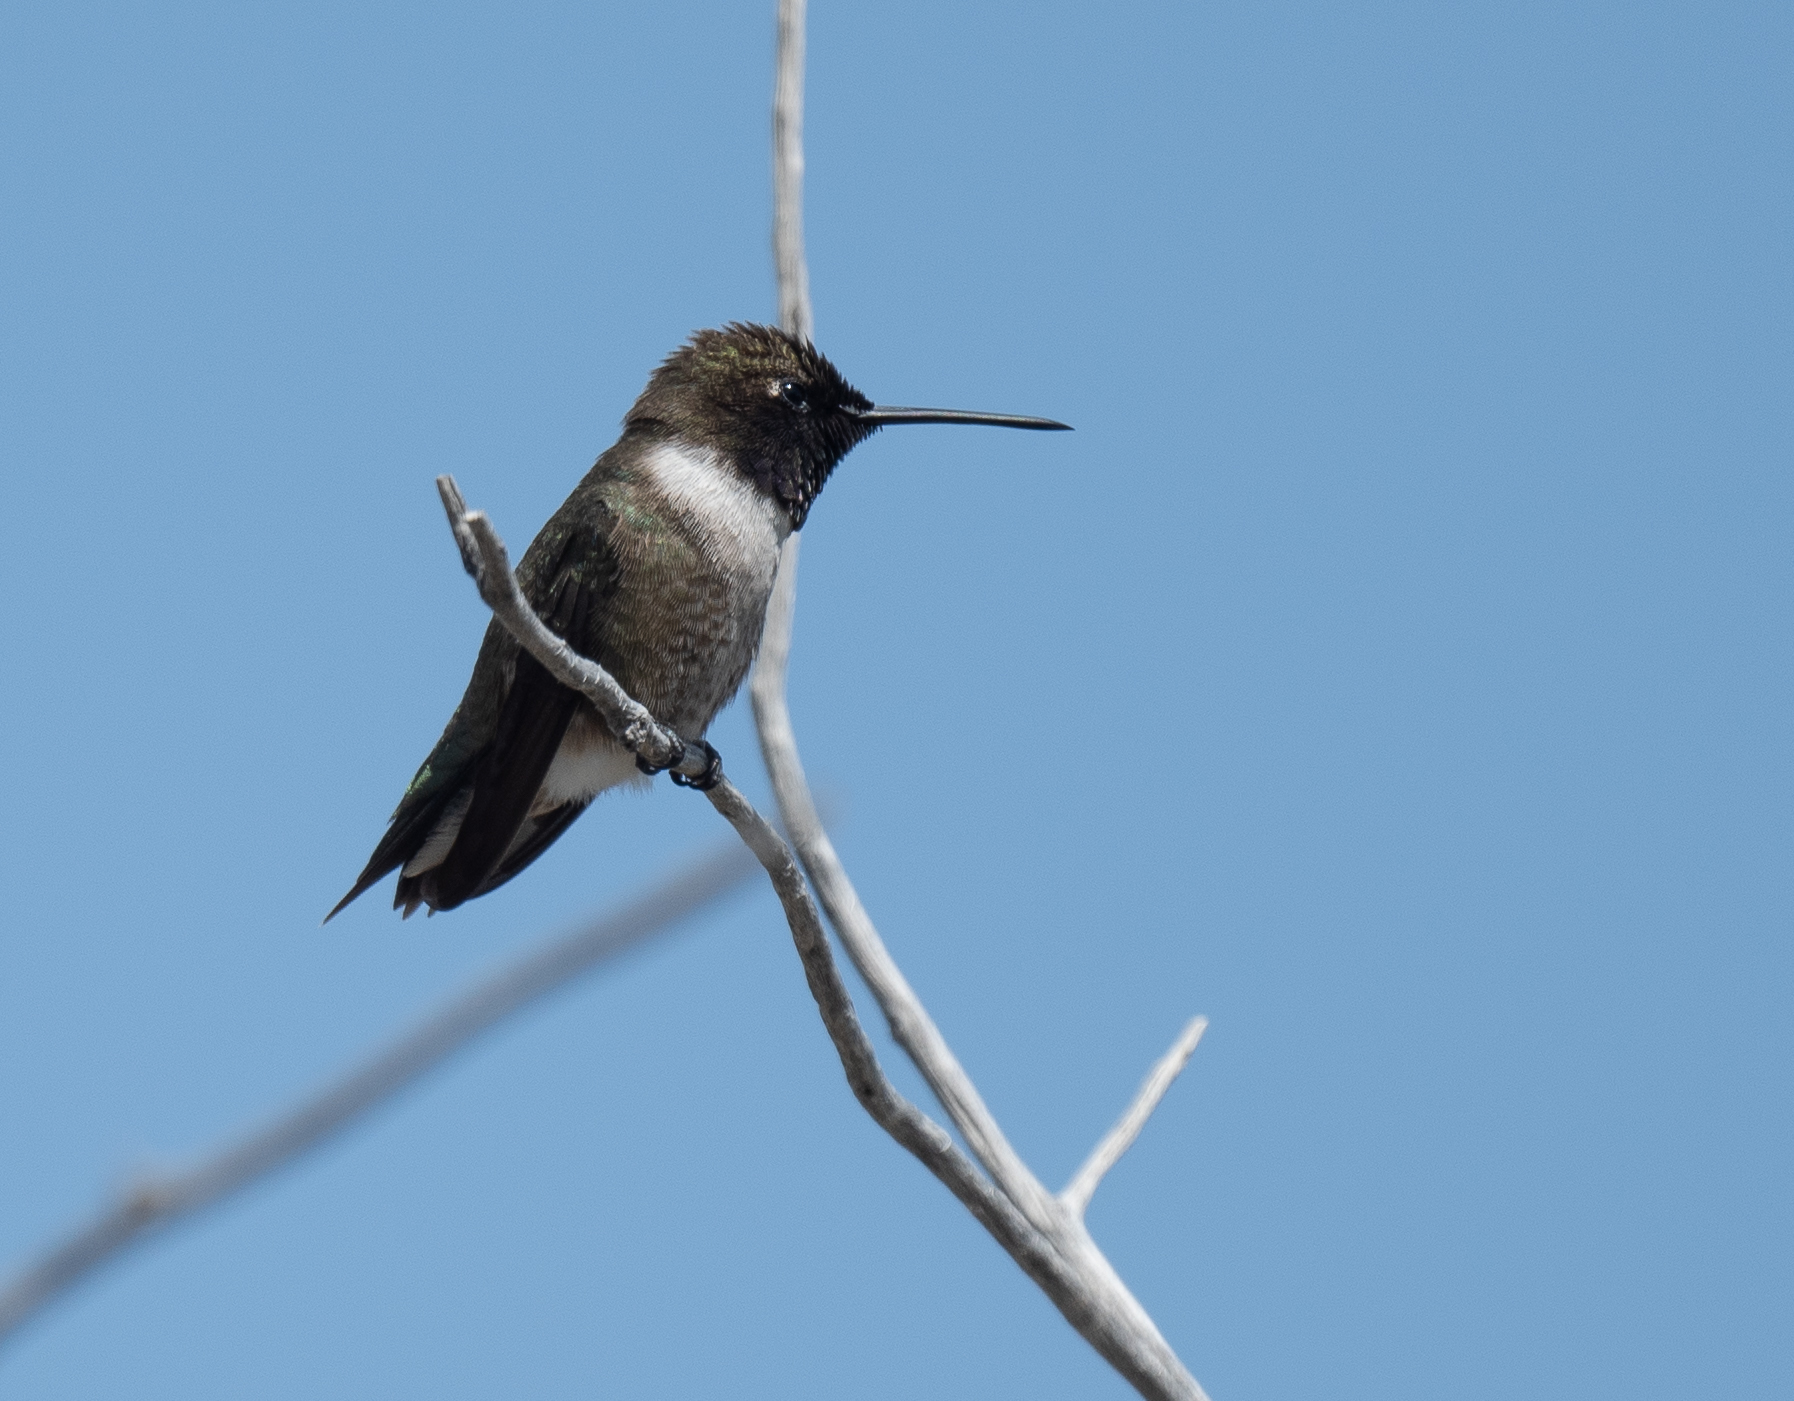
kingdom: Animalia
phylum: Chordata
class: Aves
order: Apodiformes
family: Trochilidae
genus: Archilochus
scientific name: Archilochus alexandri
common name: Black-chinned hummingbird
